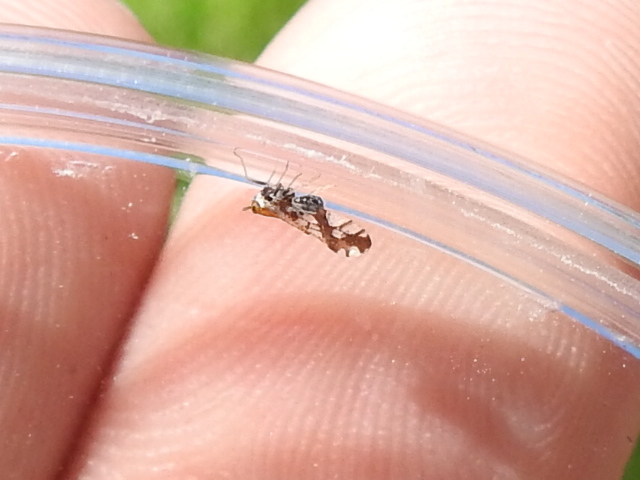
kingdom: Animalia
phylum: Arthropoda
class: Insecta
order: Hemiptera
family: Delphacidae
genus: Liburniella
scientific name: Liburniella ornata
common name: Ornate planthopper
